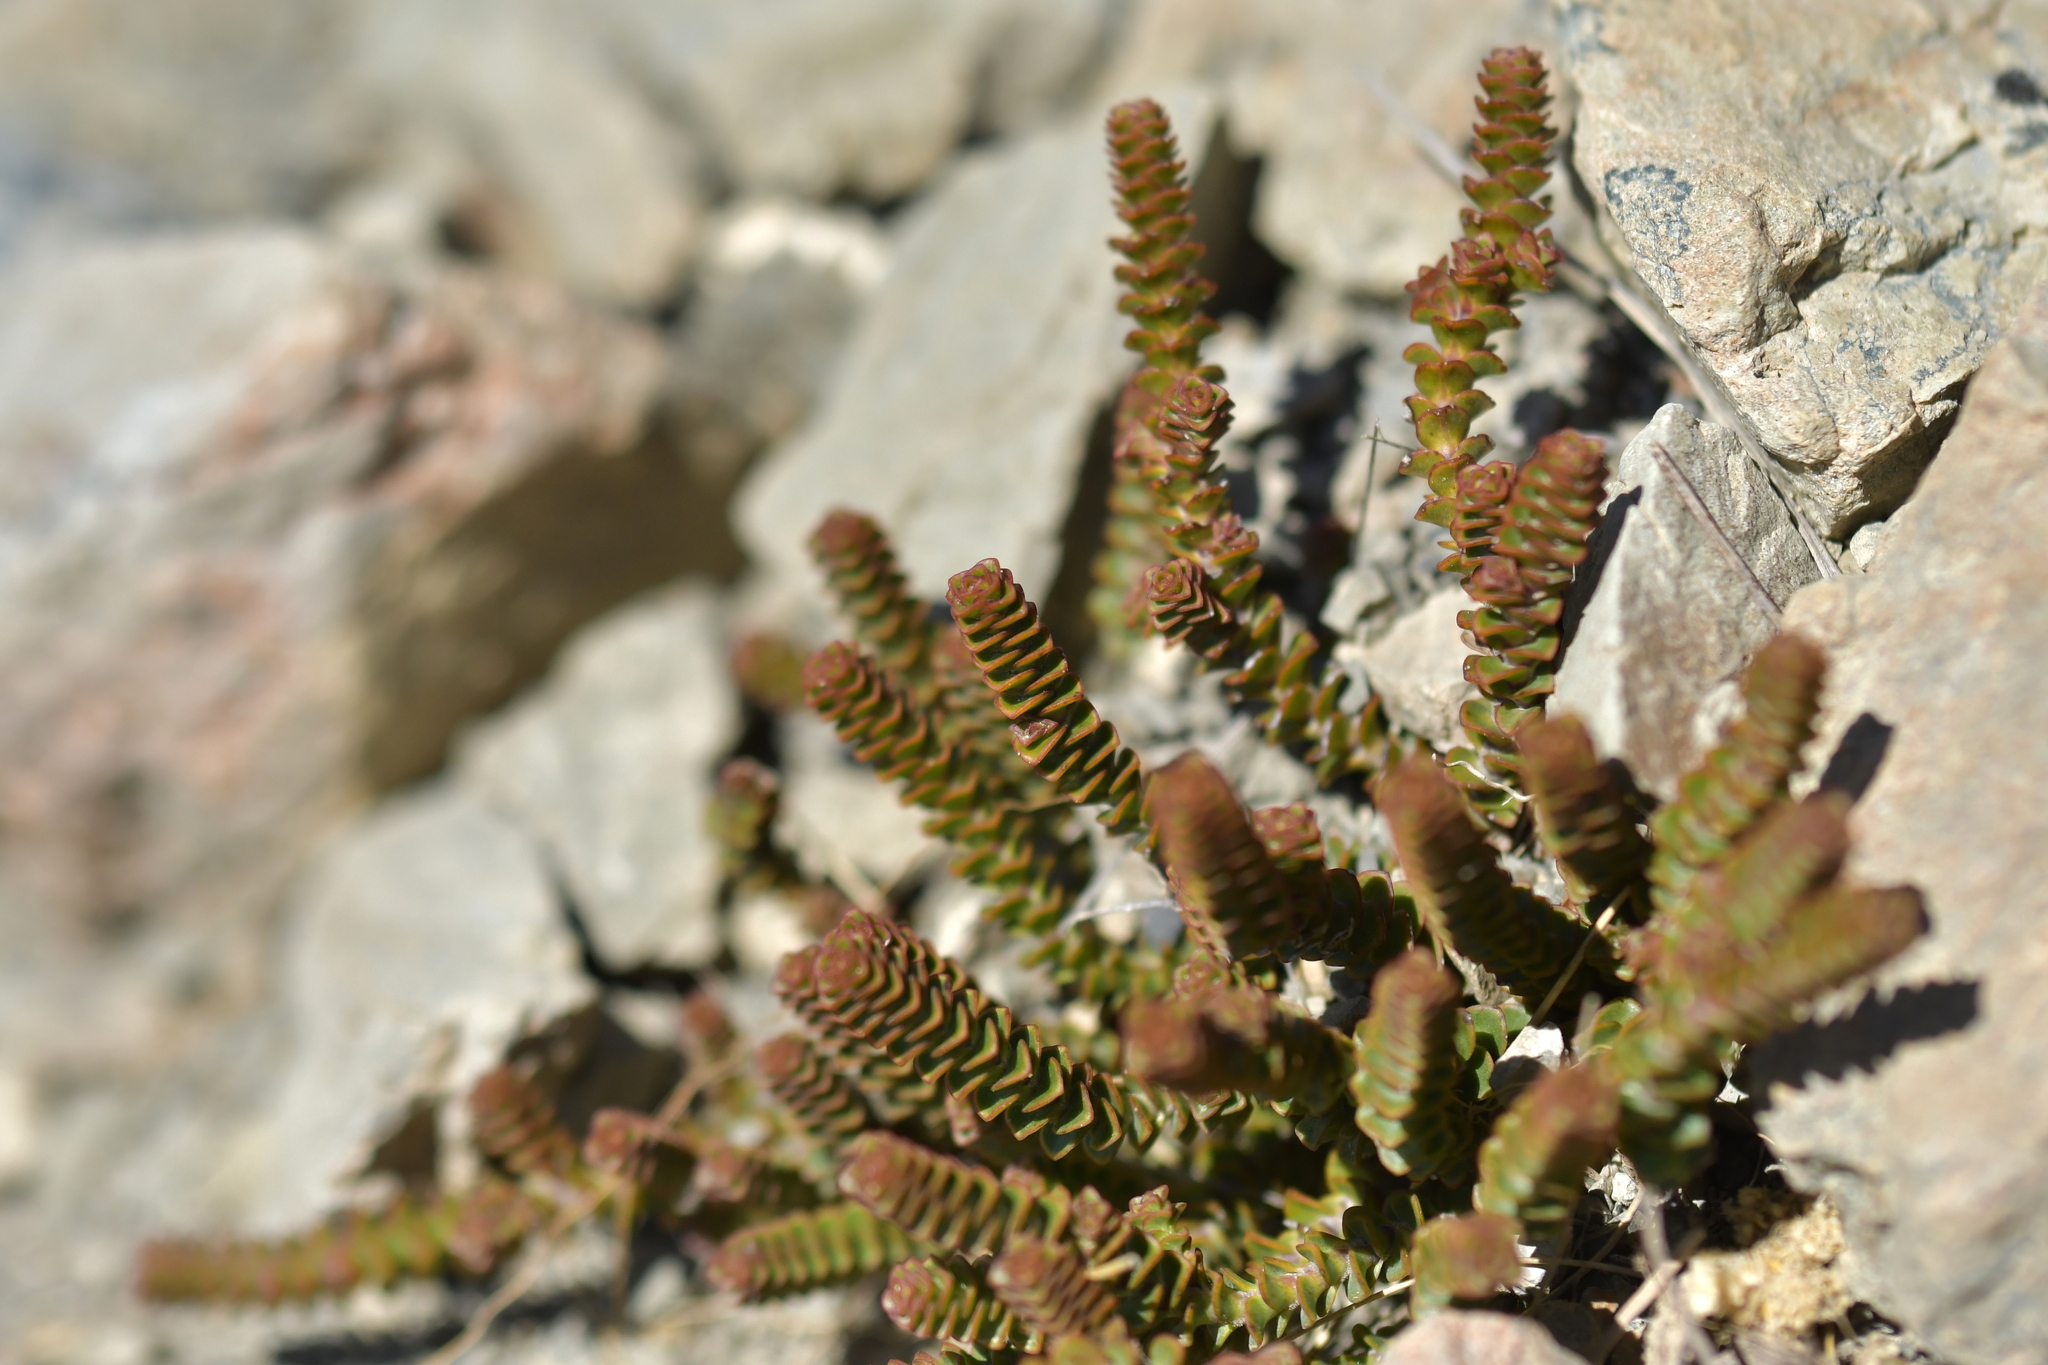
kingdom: Plantae
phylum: Tracheophyta
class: Magnoliopsida
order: Lamiales
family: Plantaginaceae
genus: Veronica
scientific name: Veronica epacridea
